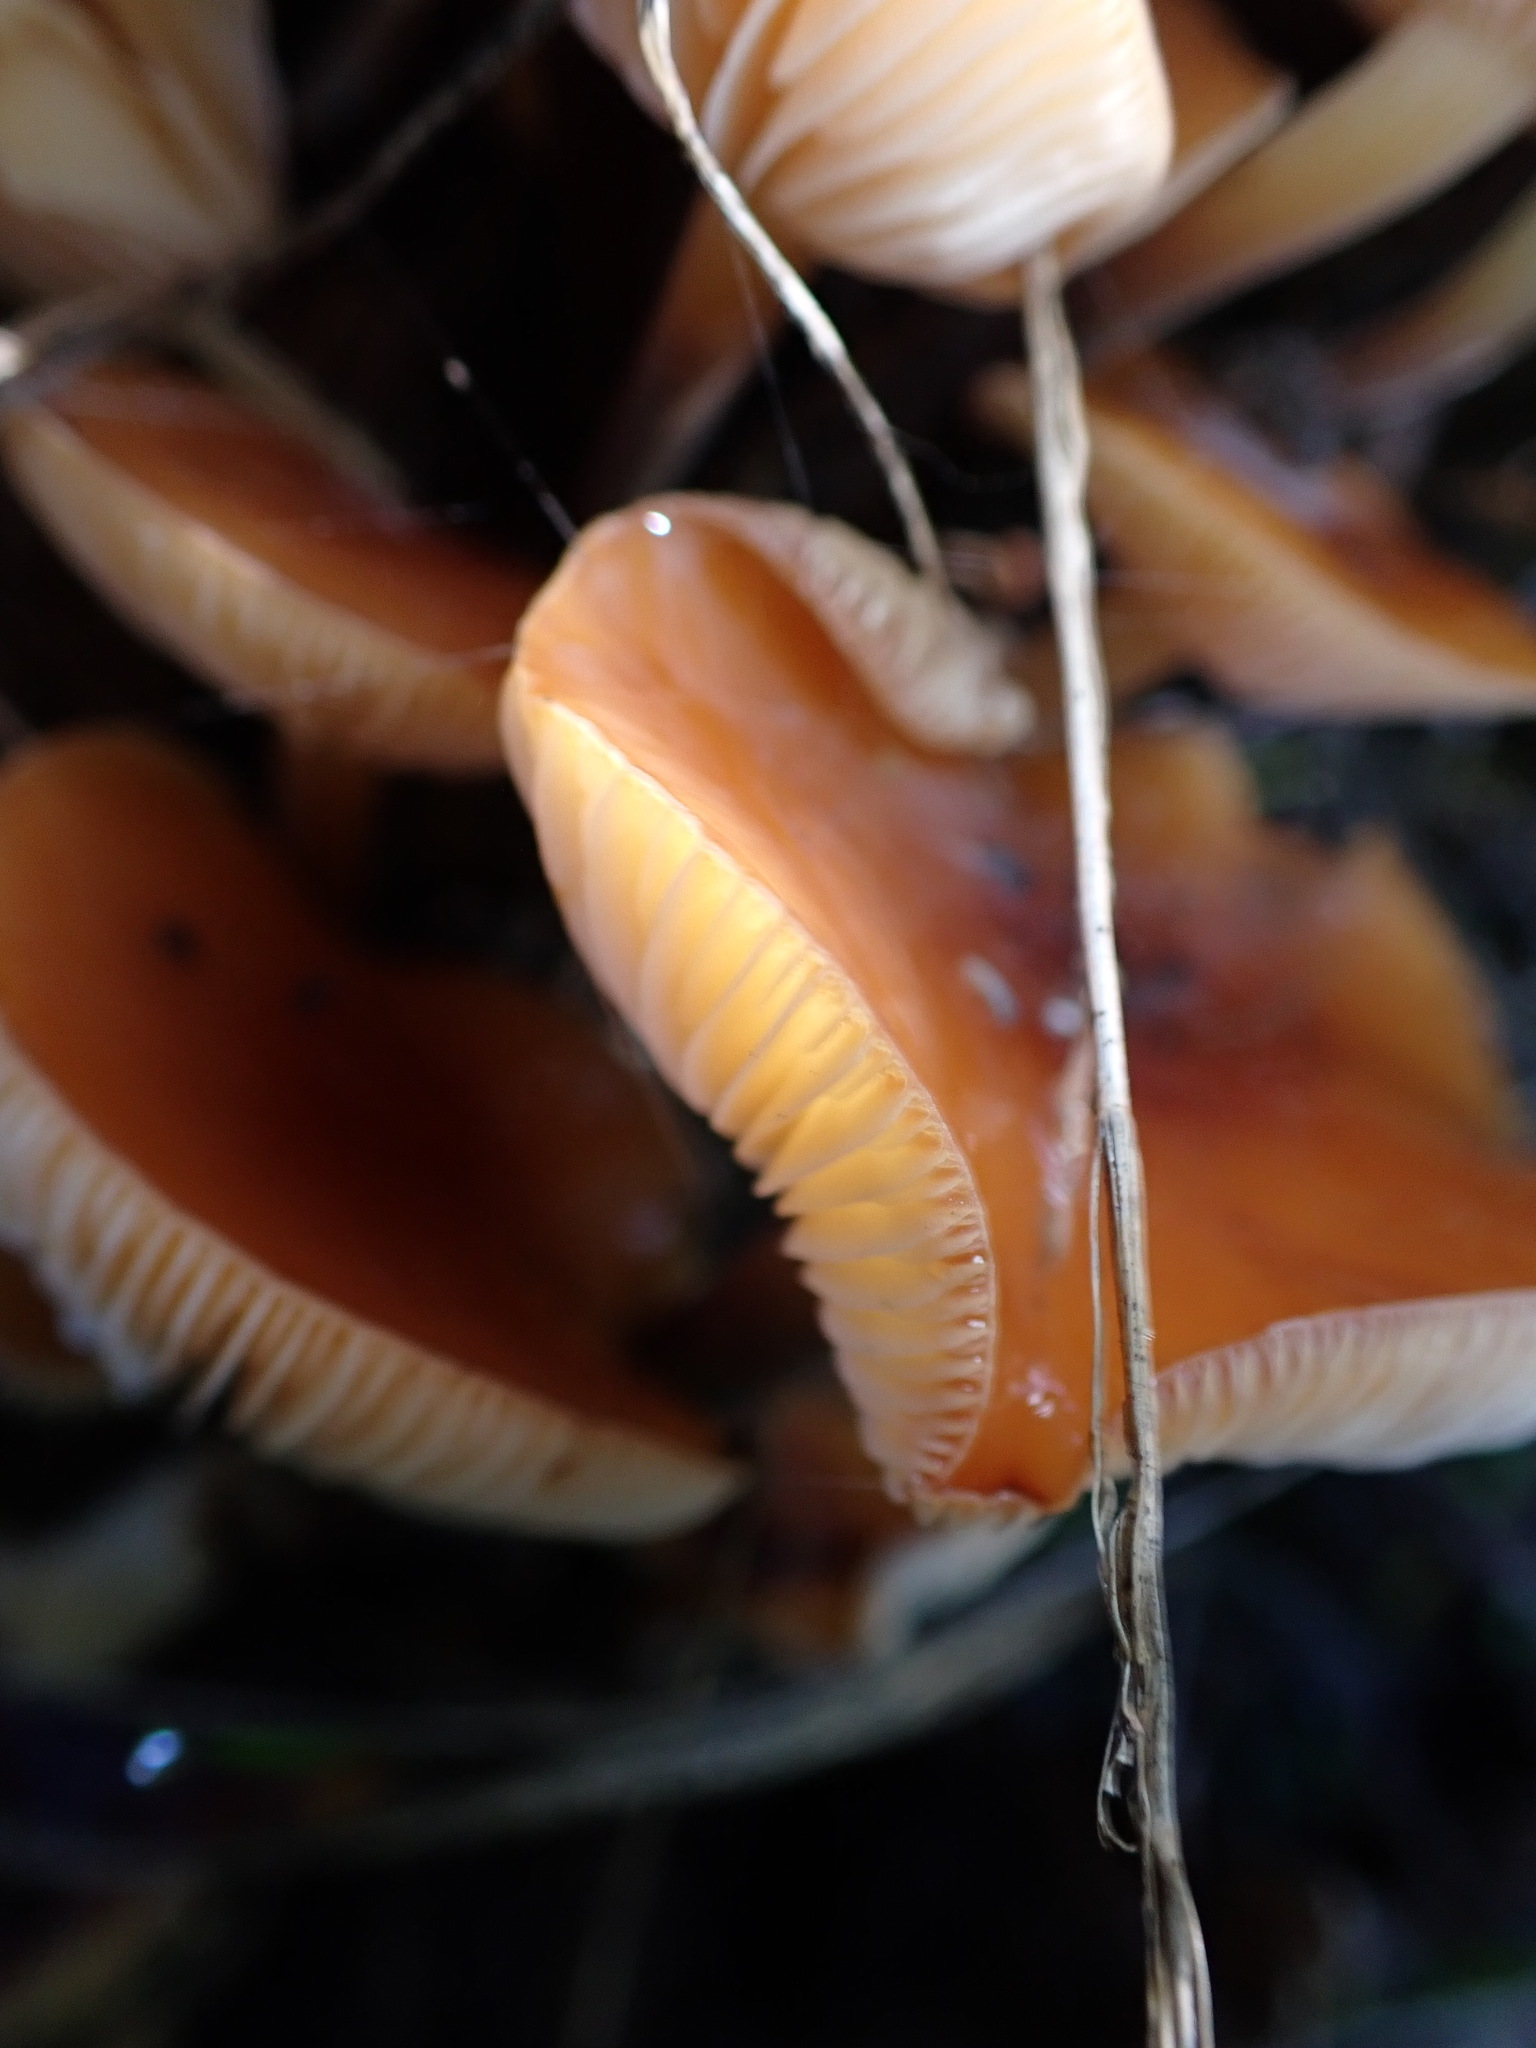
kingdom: Fungi
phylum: Basidiomycota
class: Agaricomycetes
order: Agaricales
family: Physalacriaceae
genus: Flammulina
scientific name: Flammulina velutipes
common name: Velvet shank
